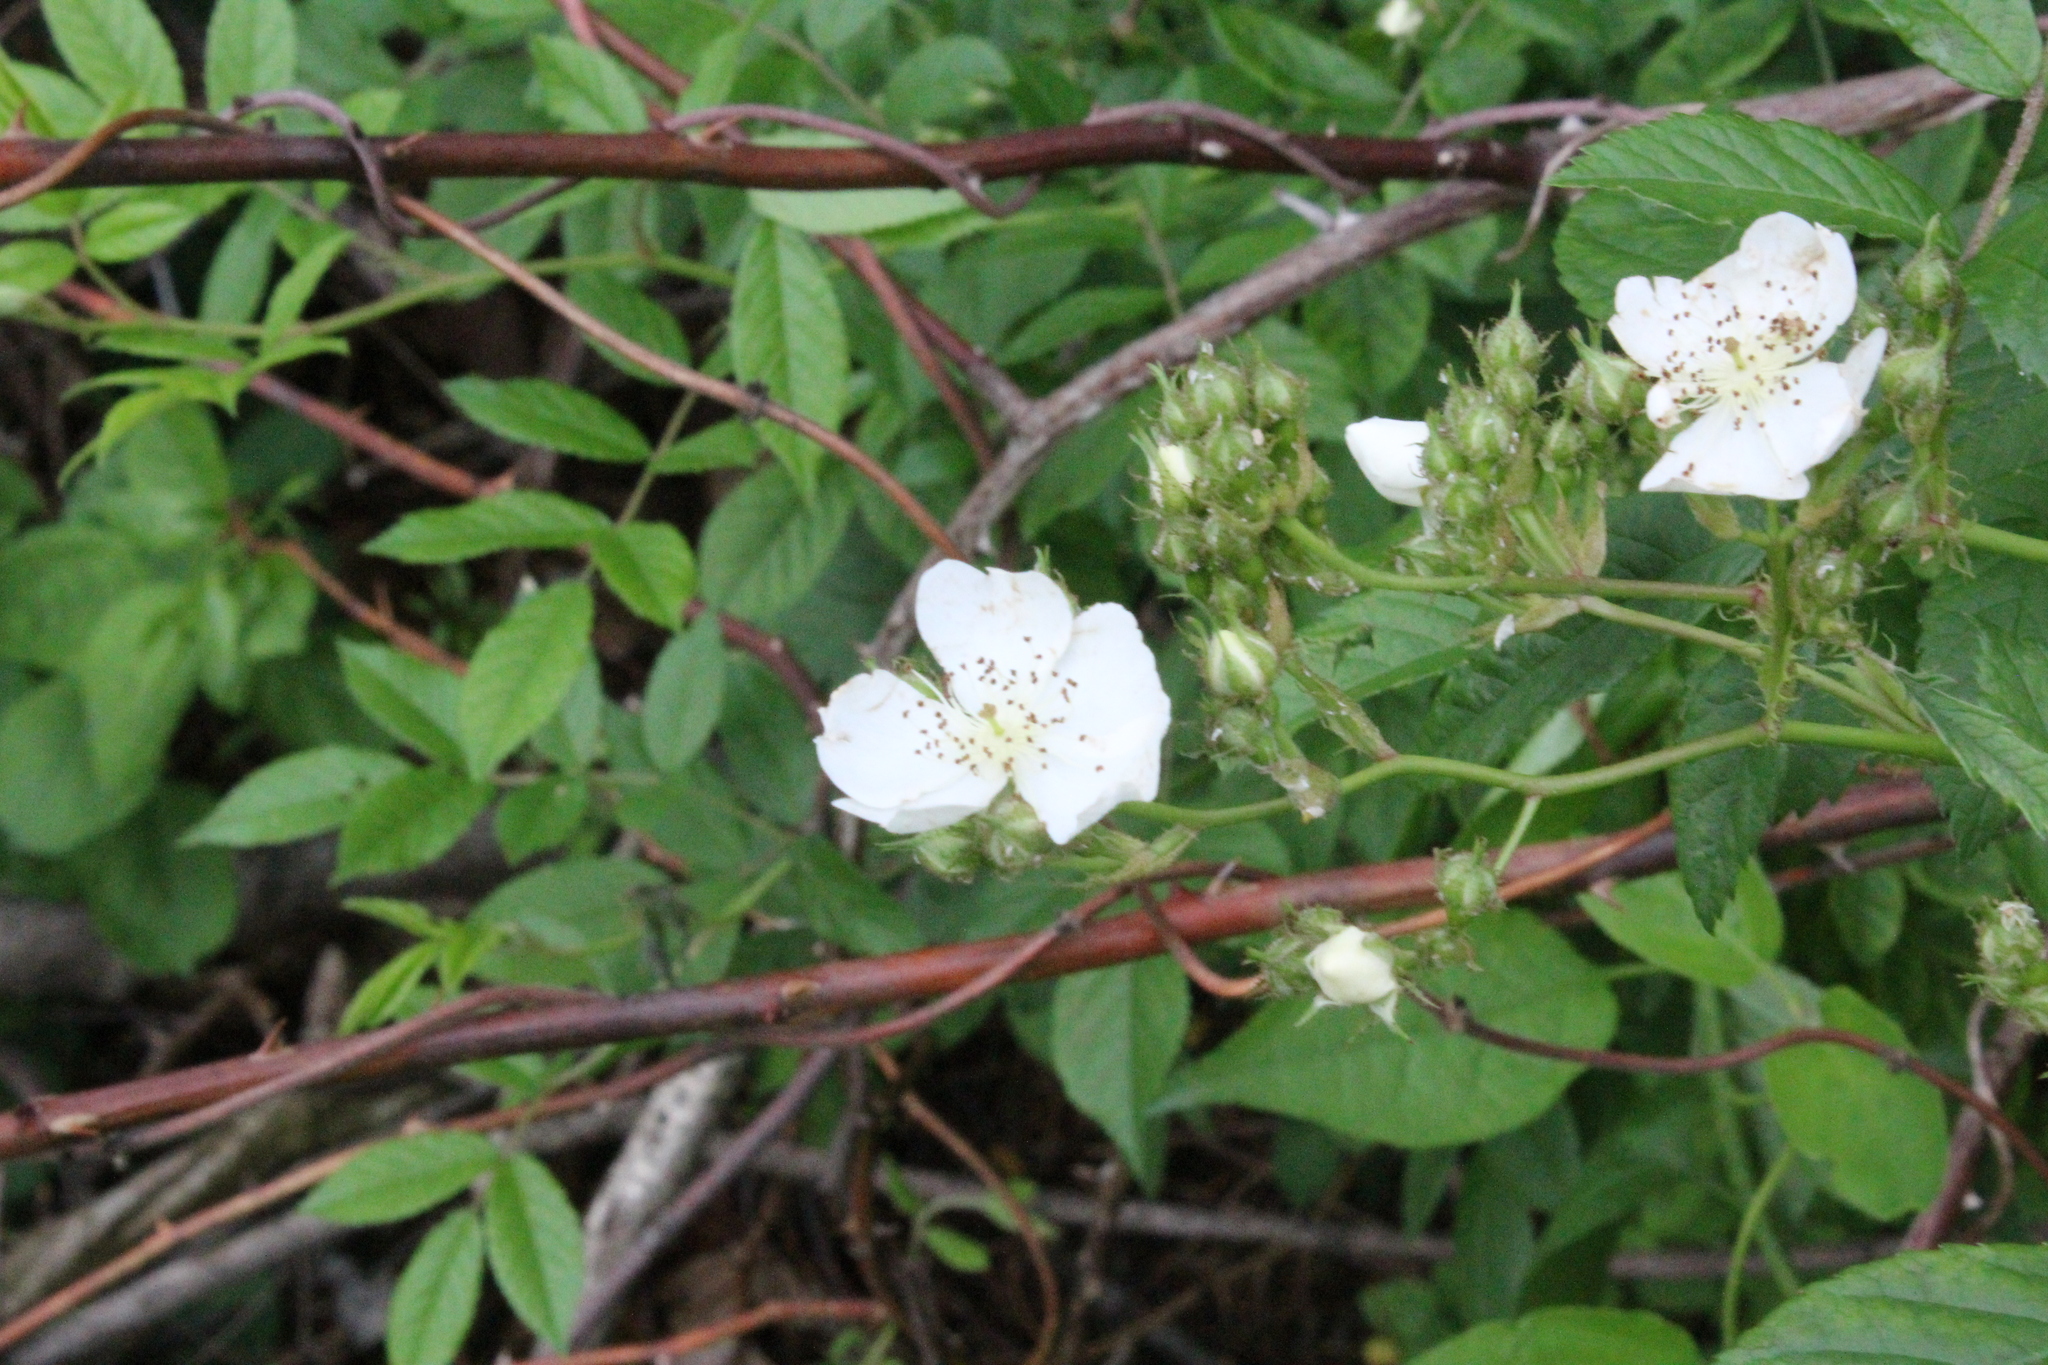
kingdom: Plantae
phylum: Tracheophyta
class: Magnoliopsida
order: Rosales
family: Rosaceae
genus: Rosa
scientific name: Rosa multiflora
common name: Multiflora rose
